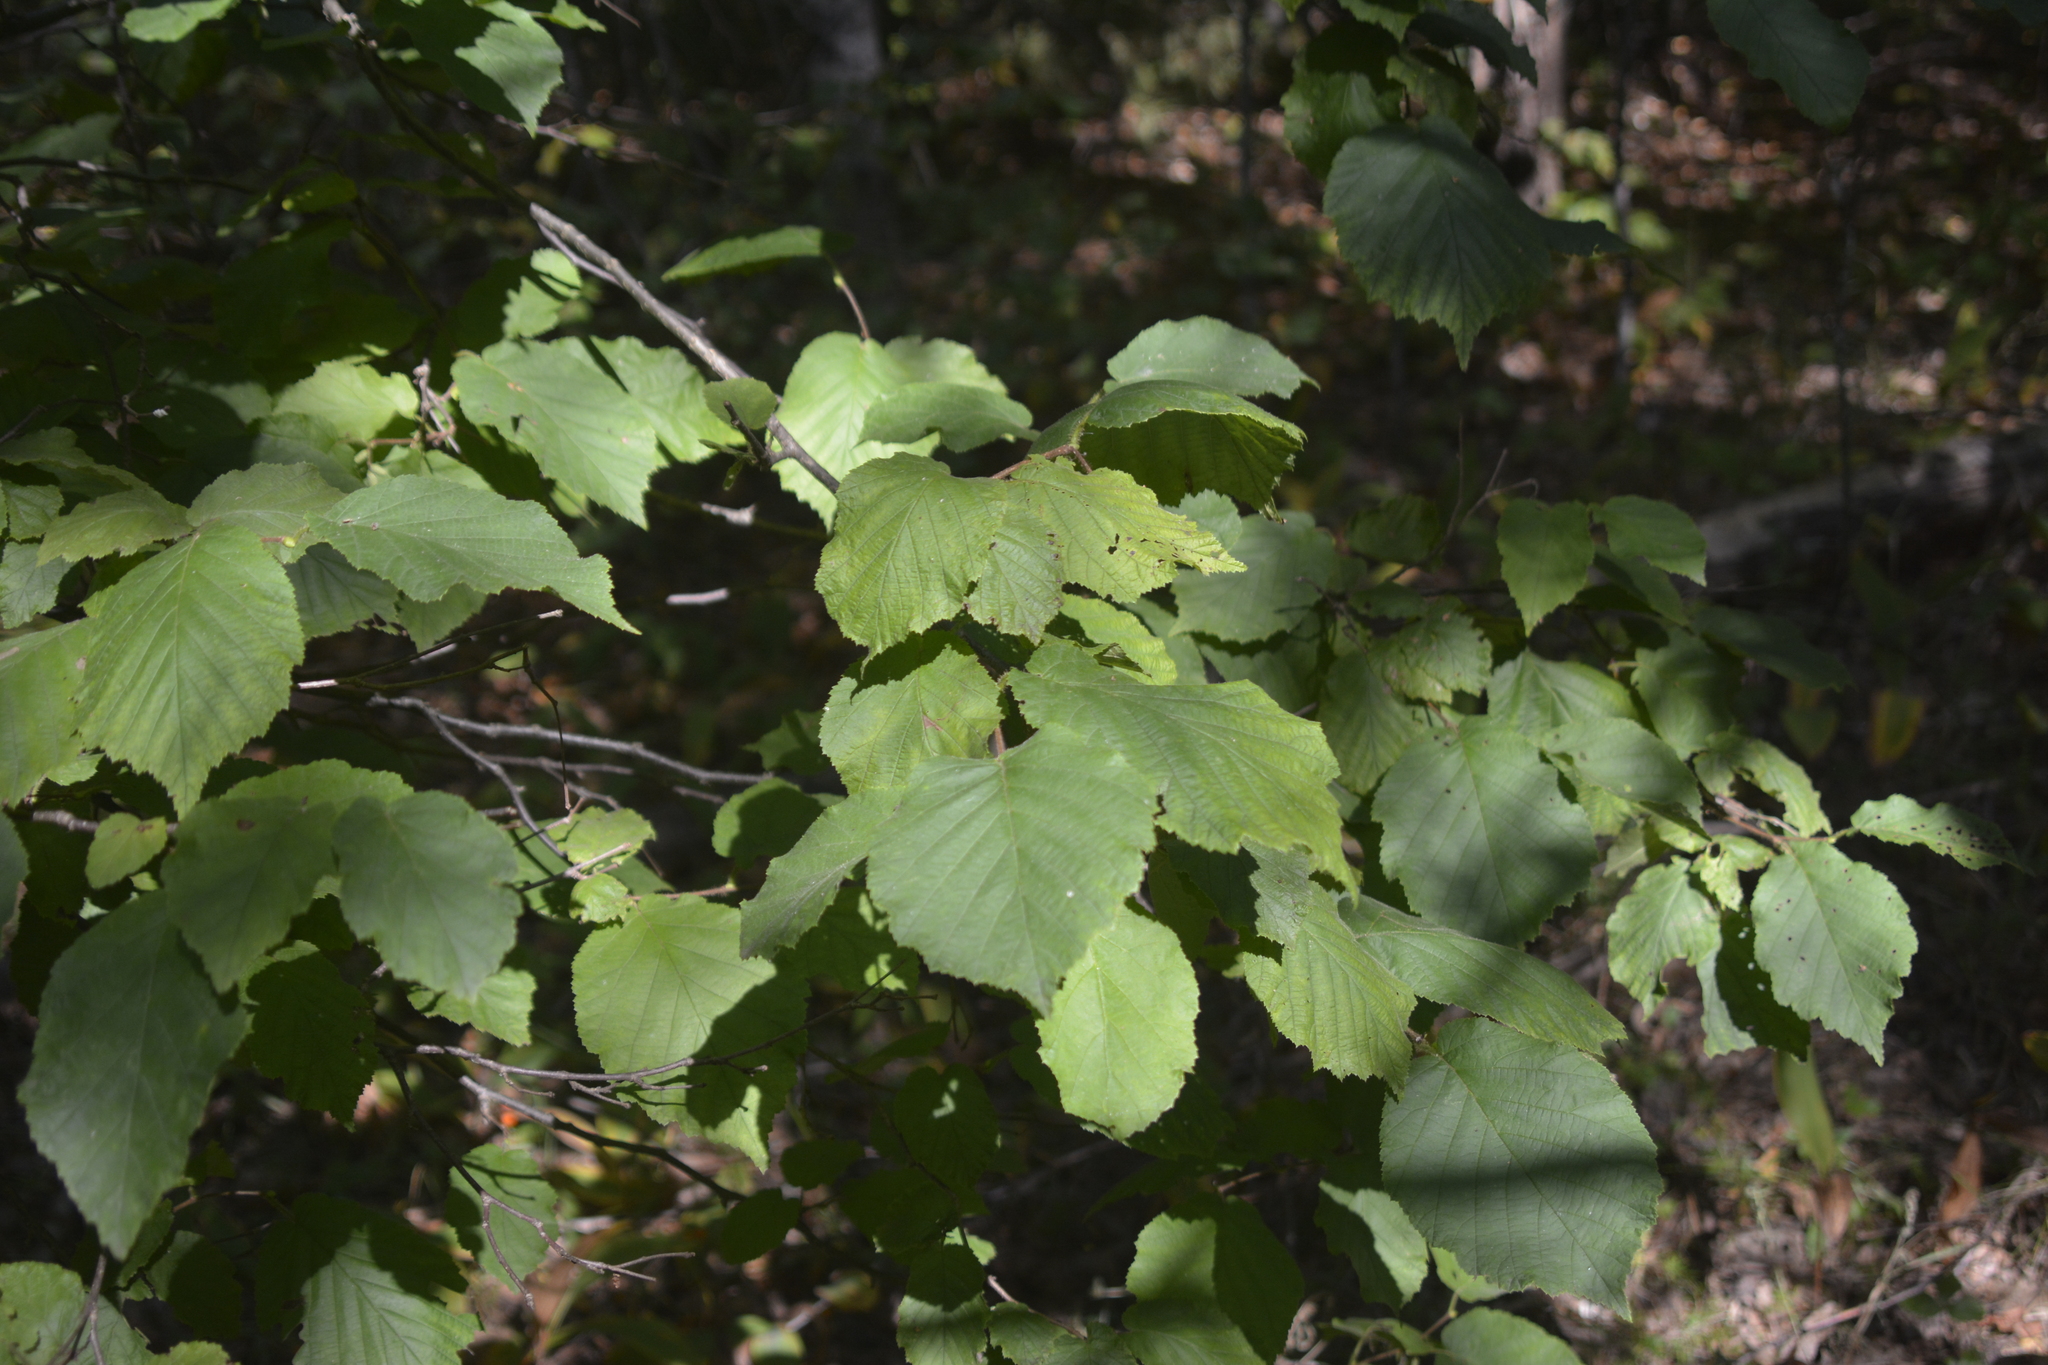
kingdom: Plantae
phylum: Tracheophyta
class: Magnoliopsida
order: Fagales
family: Betulaceae
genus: Corylus
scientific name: Corylus avellana
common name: European hazel
